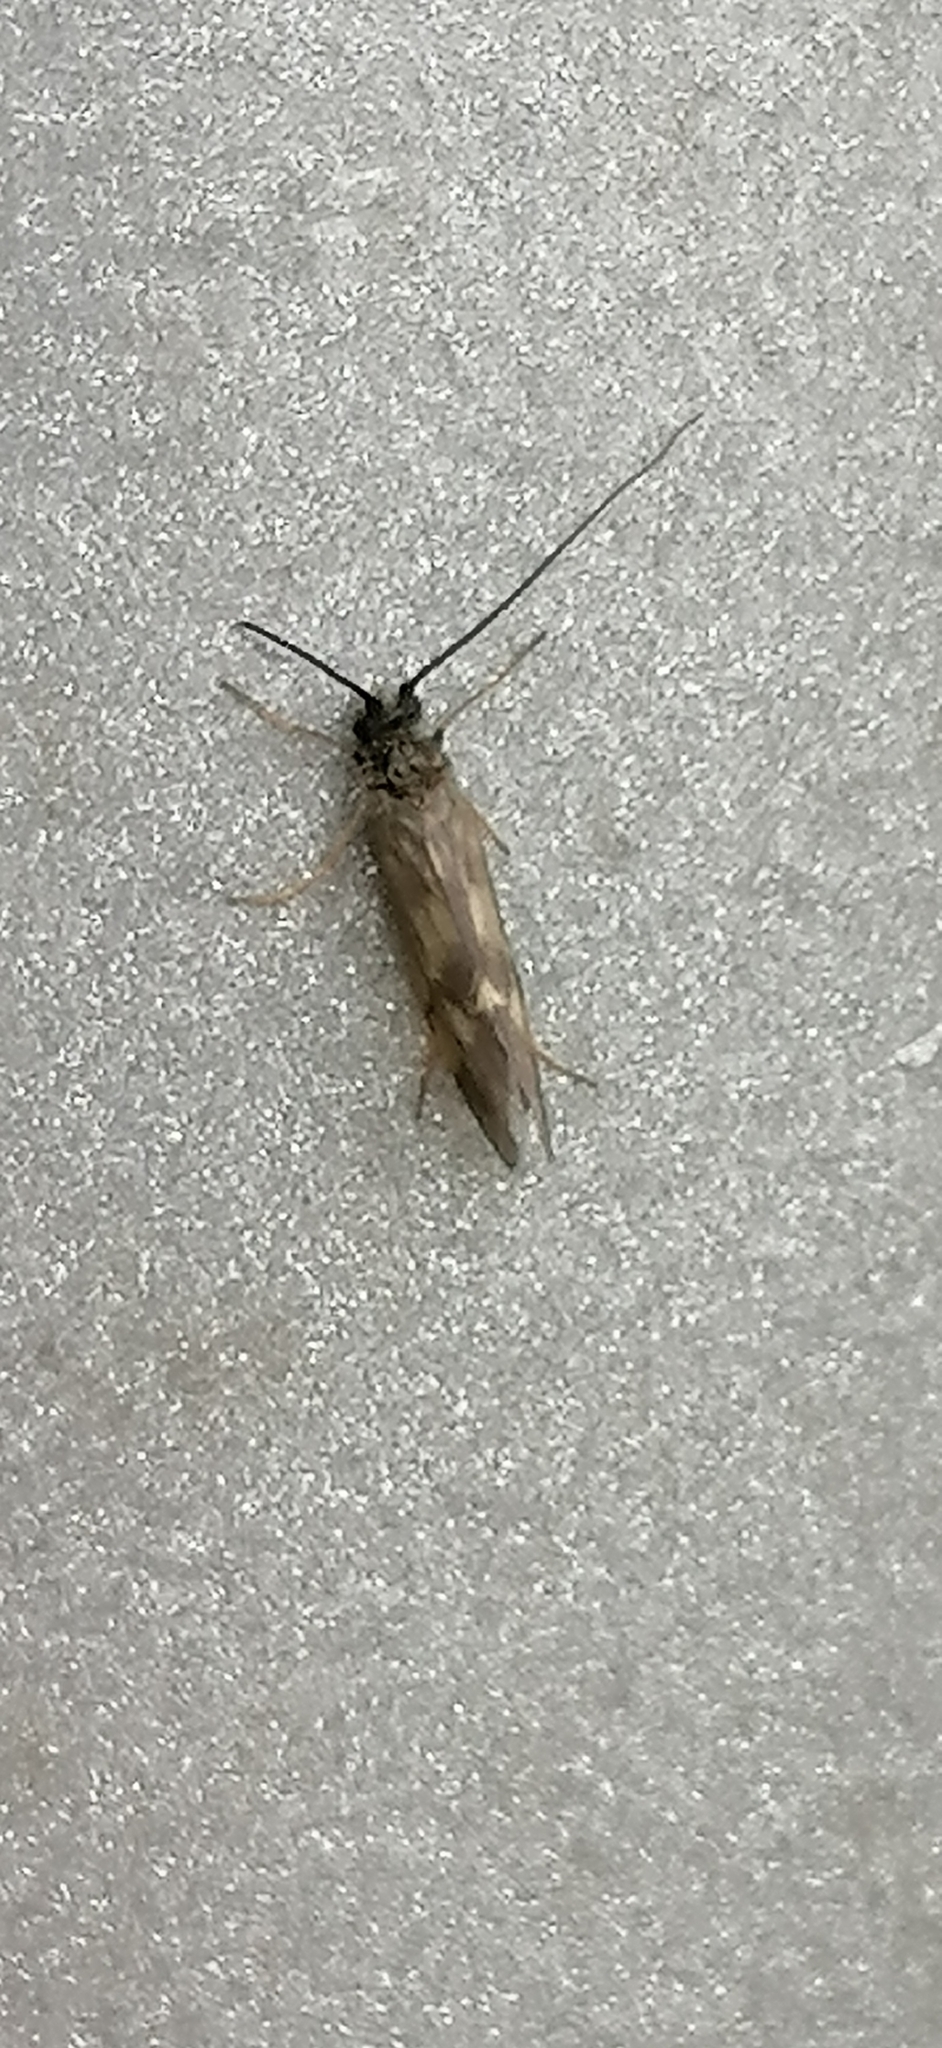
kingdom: Animalia
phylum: Arthropoda
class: Insecta
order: Trichoptera
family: Brachycentridae
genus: Brachycentrus
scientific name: Brachycentrus subnubilis
